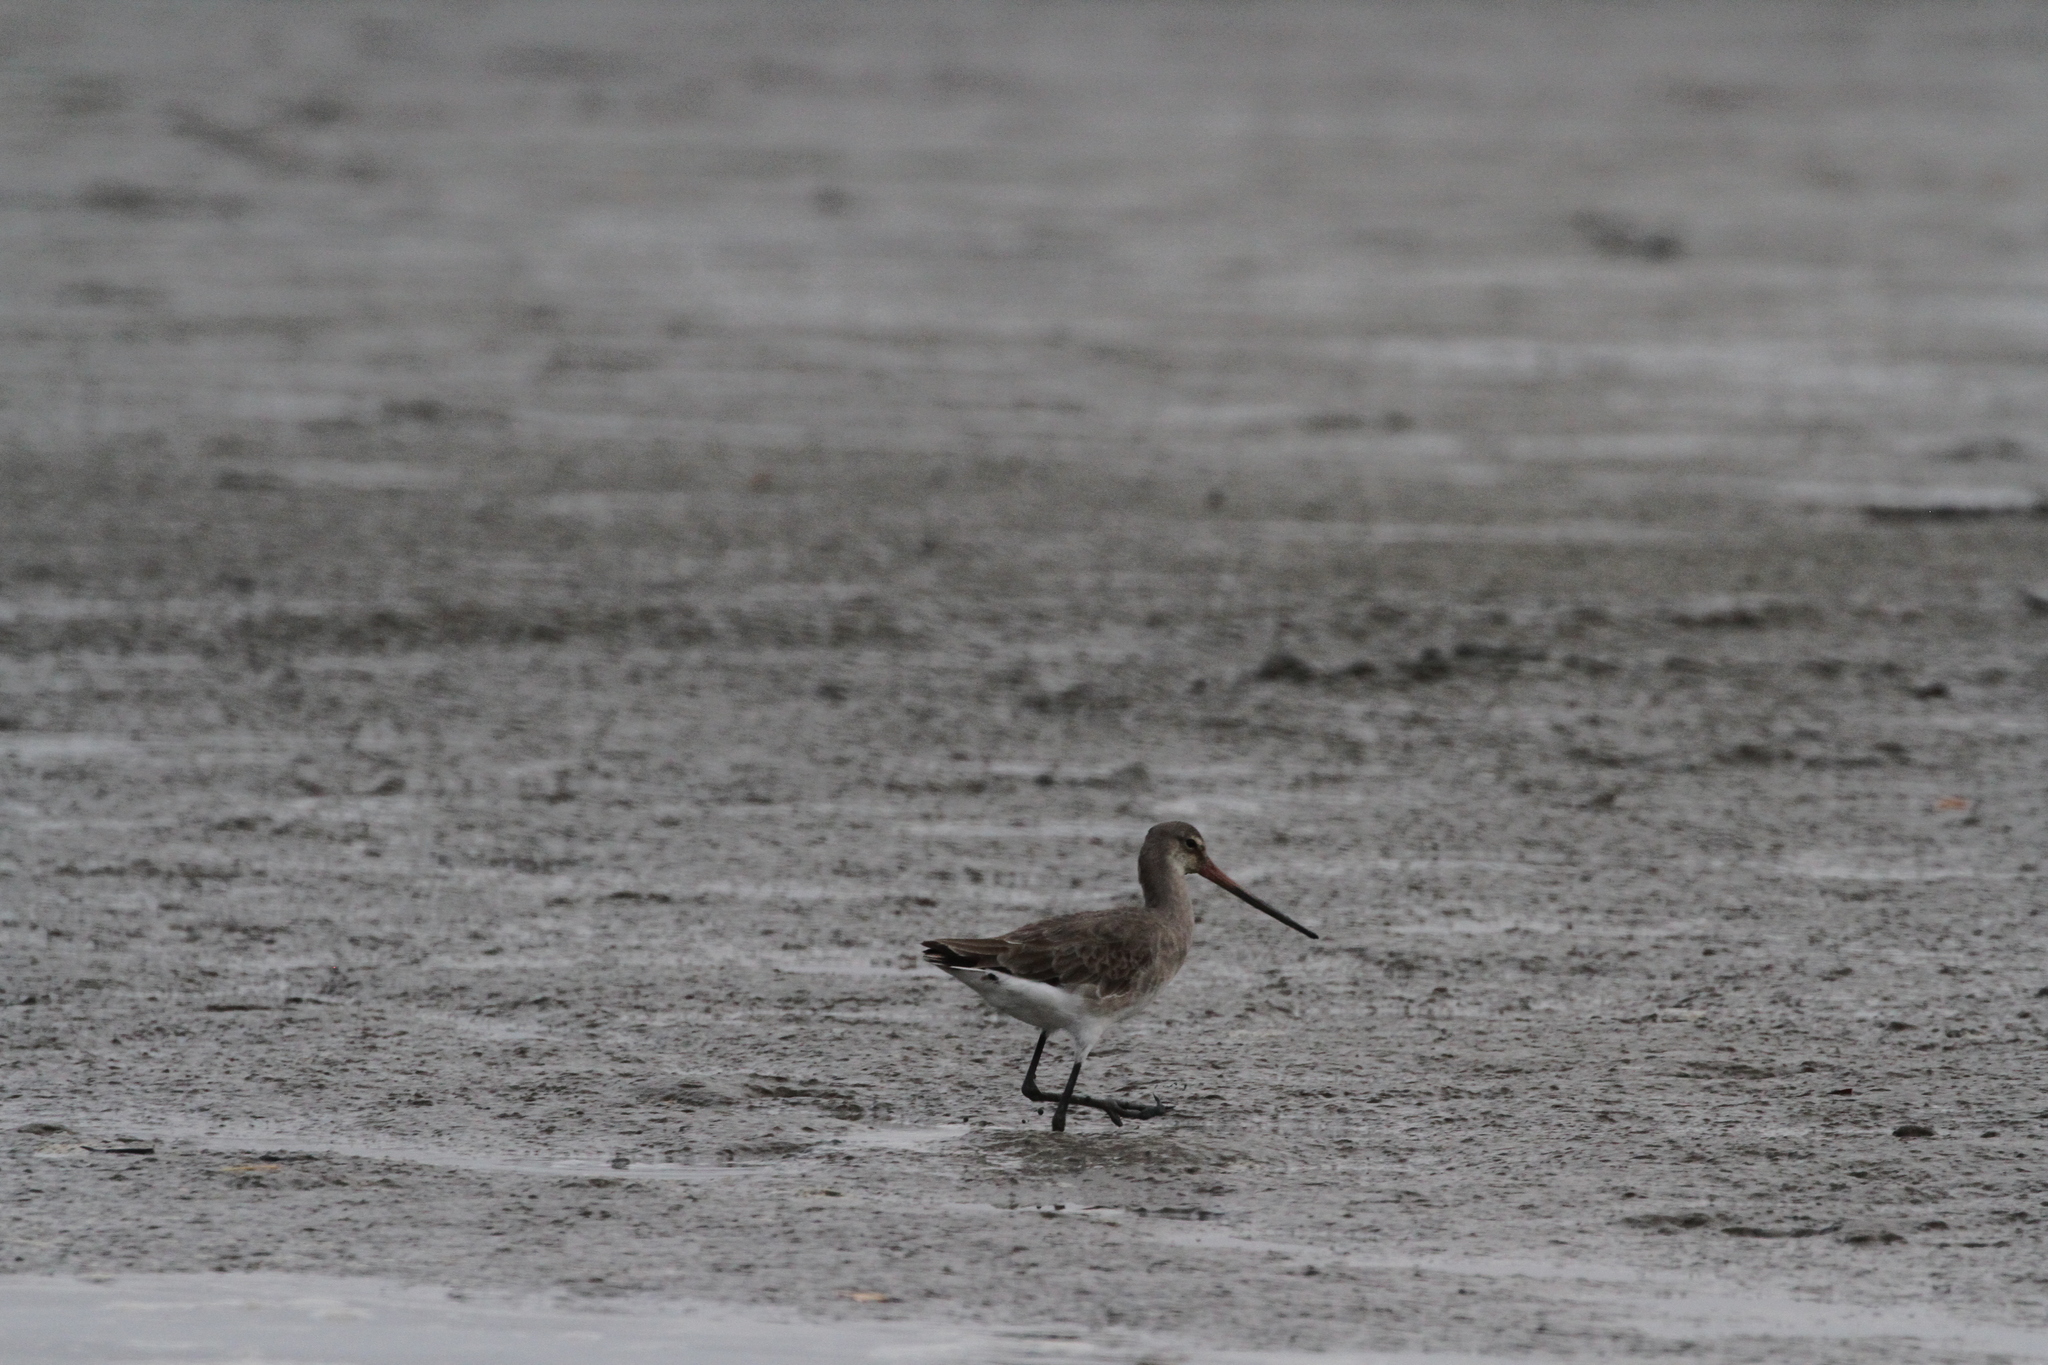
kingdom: Animalia
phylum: Chordata
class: Aves
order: Charadriiformes
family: Scolopacidae
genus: Limosa
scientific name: Limosa limosa
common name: Black-tailed godwit
